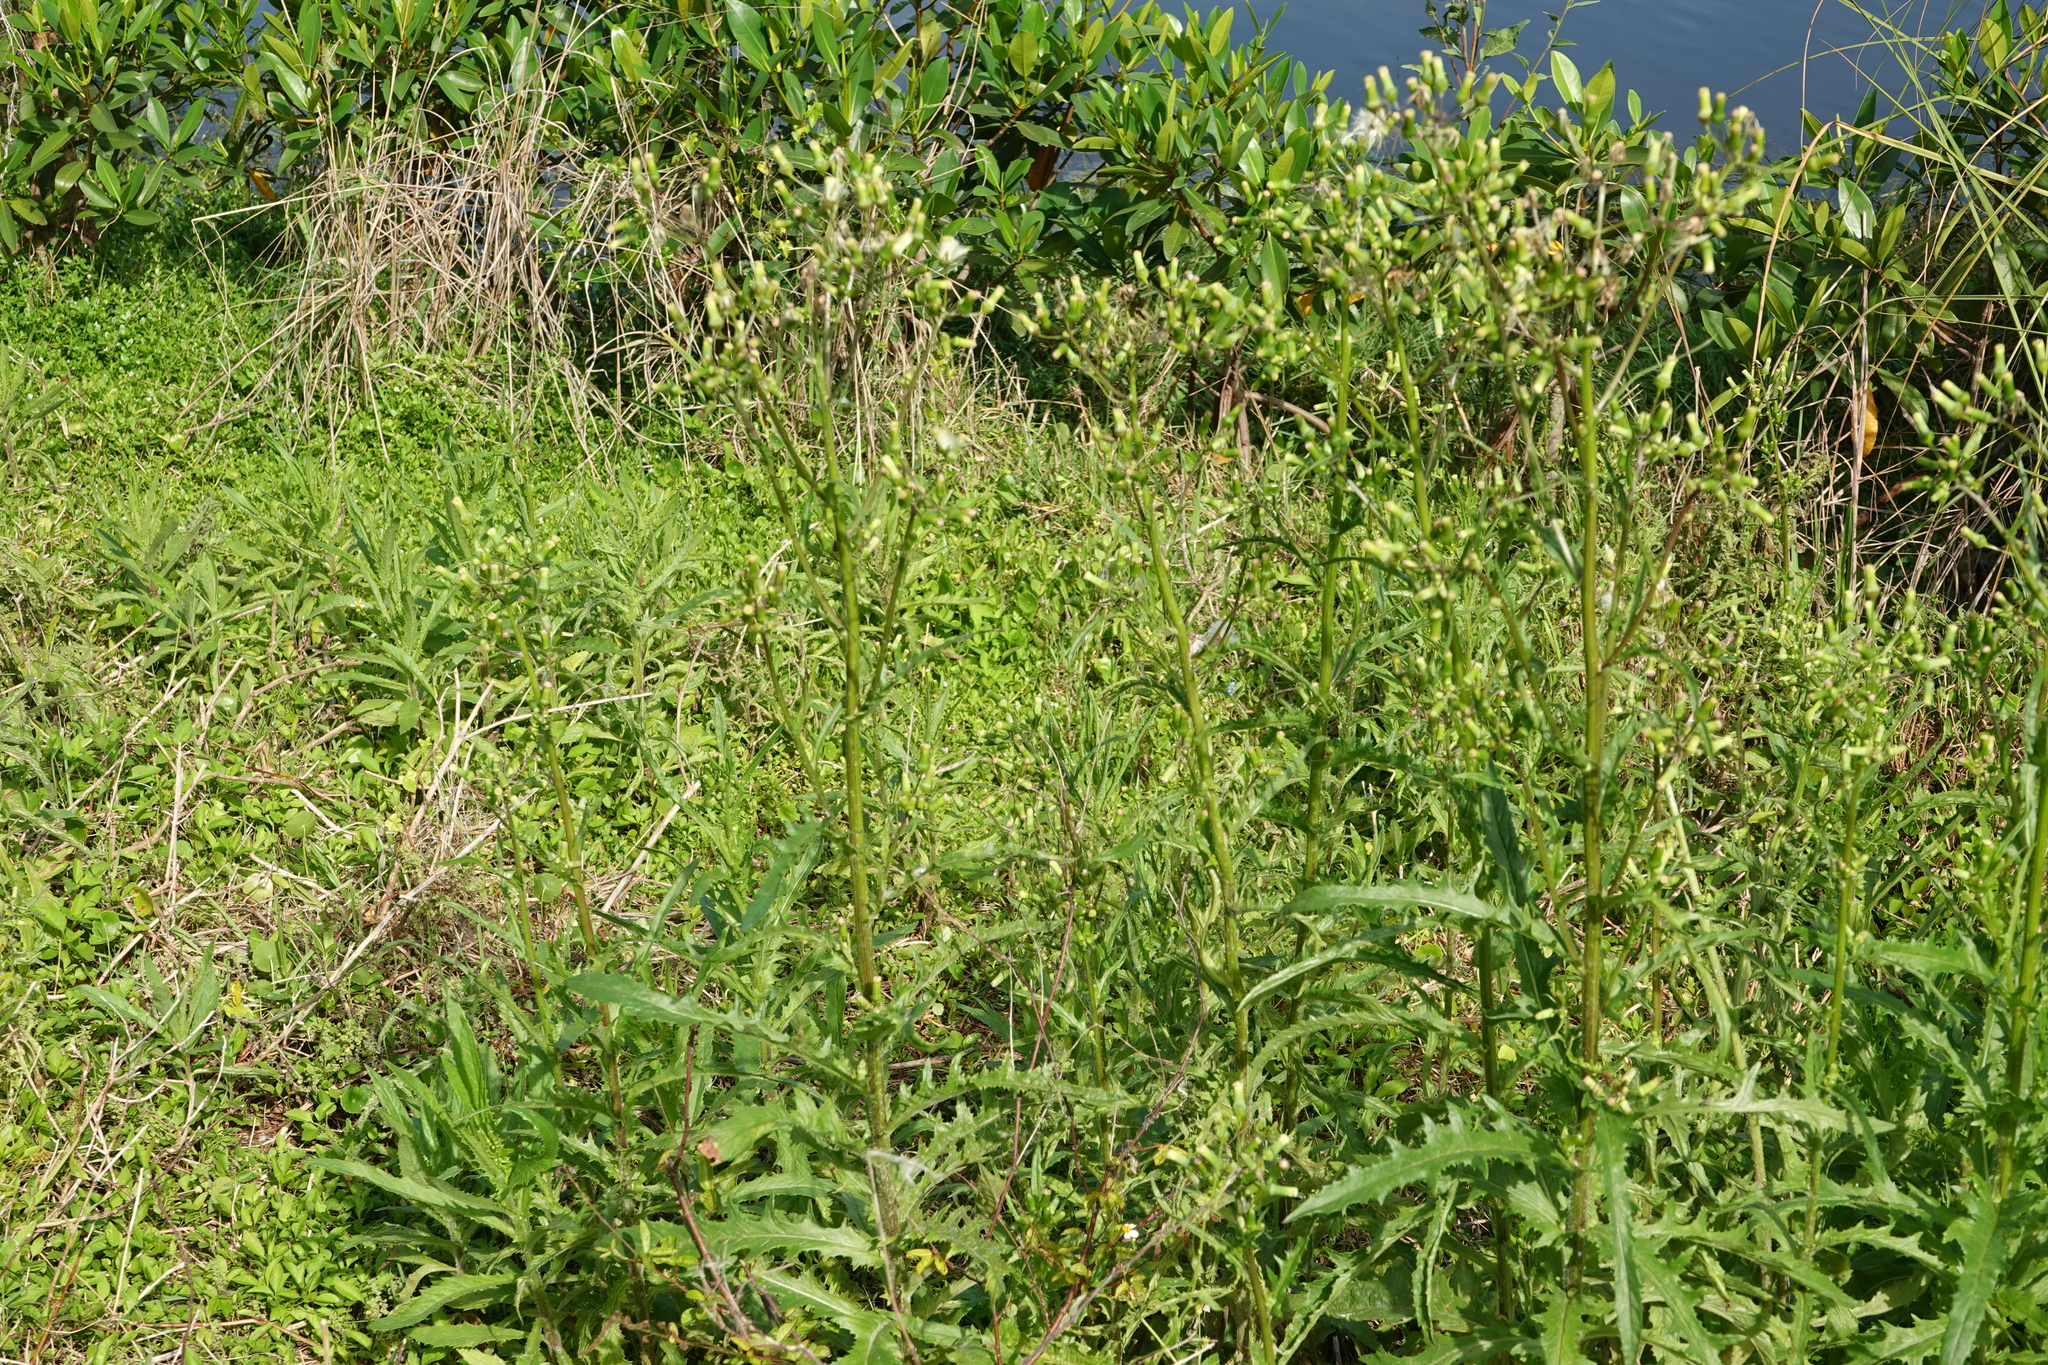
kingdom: Plantae
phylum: Tracheophyta
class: Magnoliopsida
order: Asterales
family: Asteraceae
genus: Sonchus
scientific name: Sonchus oleraceus
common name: Common sowthistle
